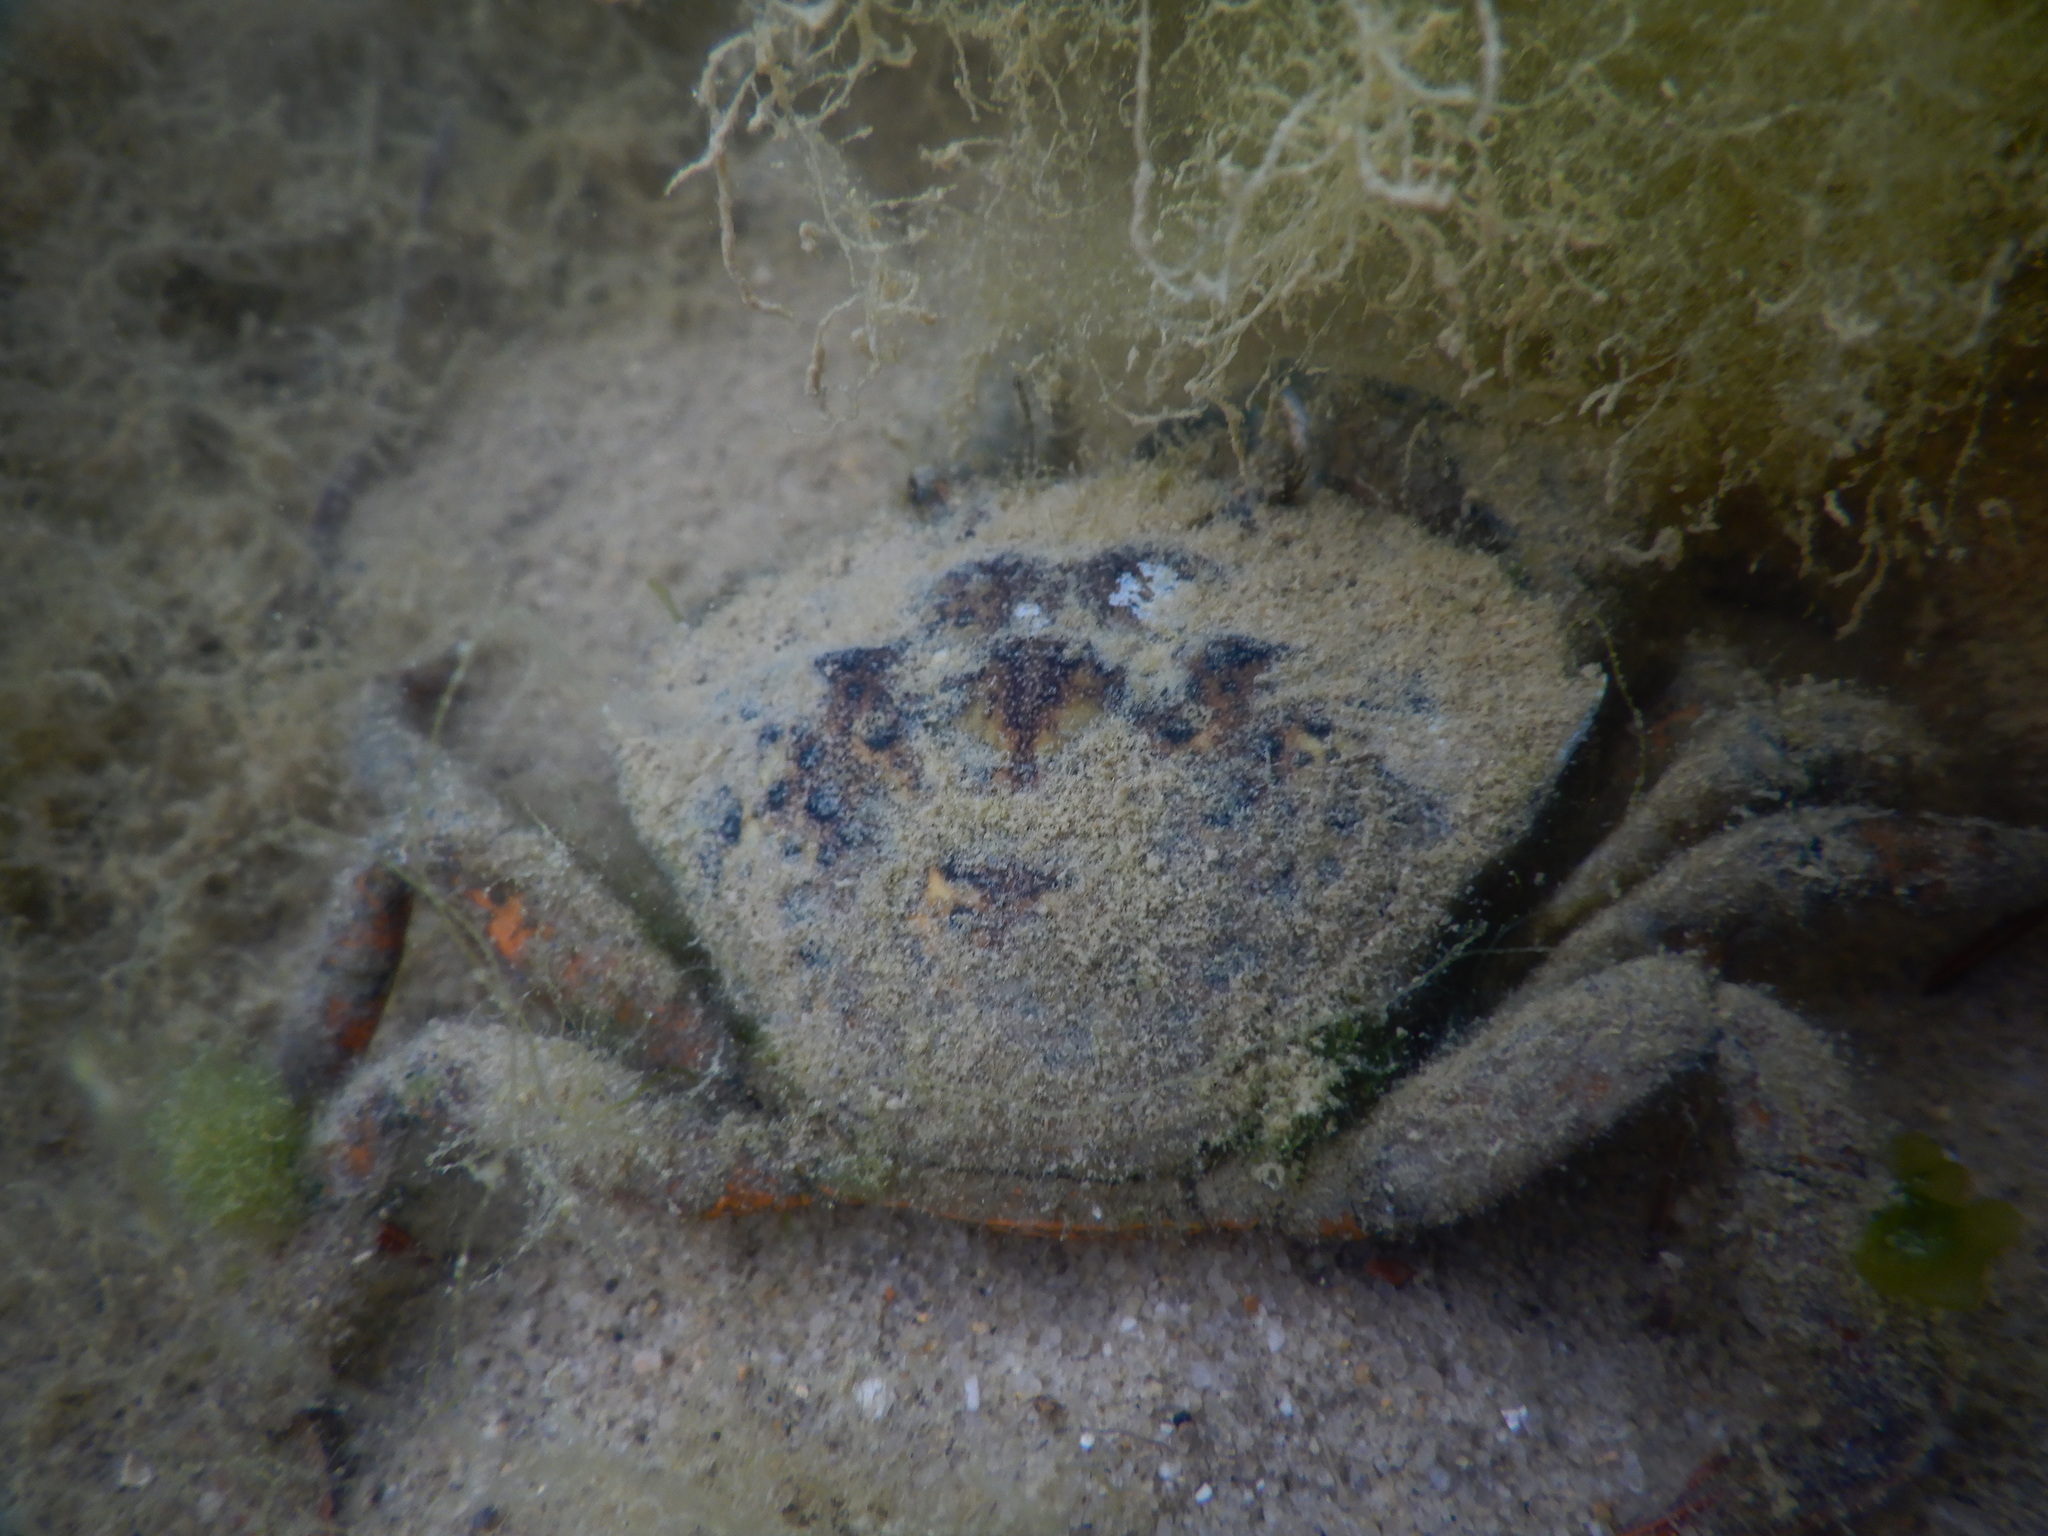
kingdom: Animalia
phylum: Arthropoda
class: Malacostraca
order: Decapoda
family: Carcinidae
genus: Carcinus
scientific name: Carcinus maenas
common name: European green crab
